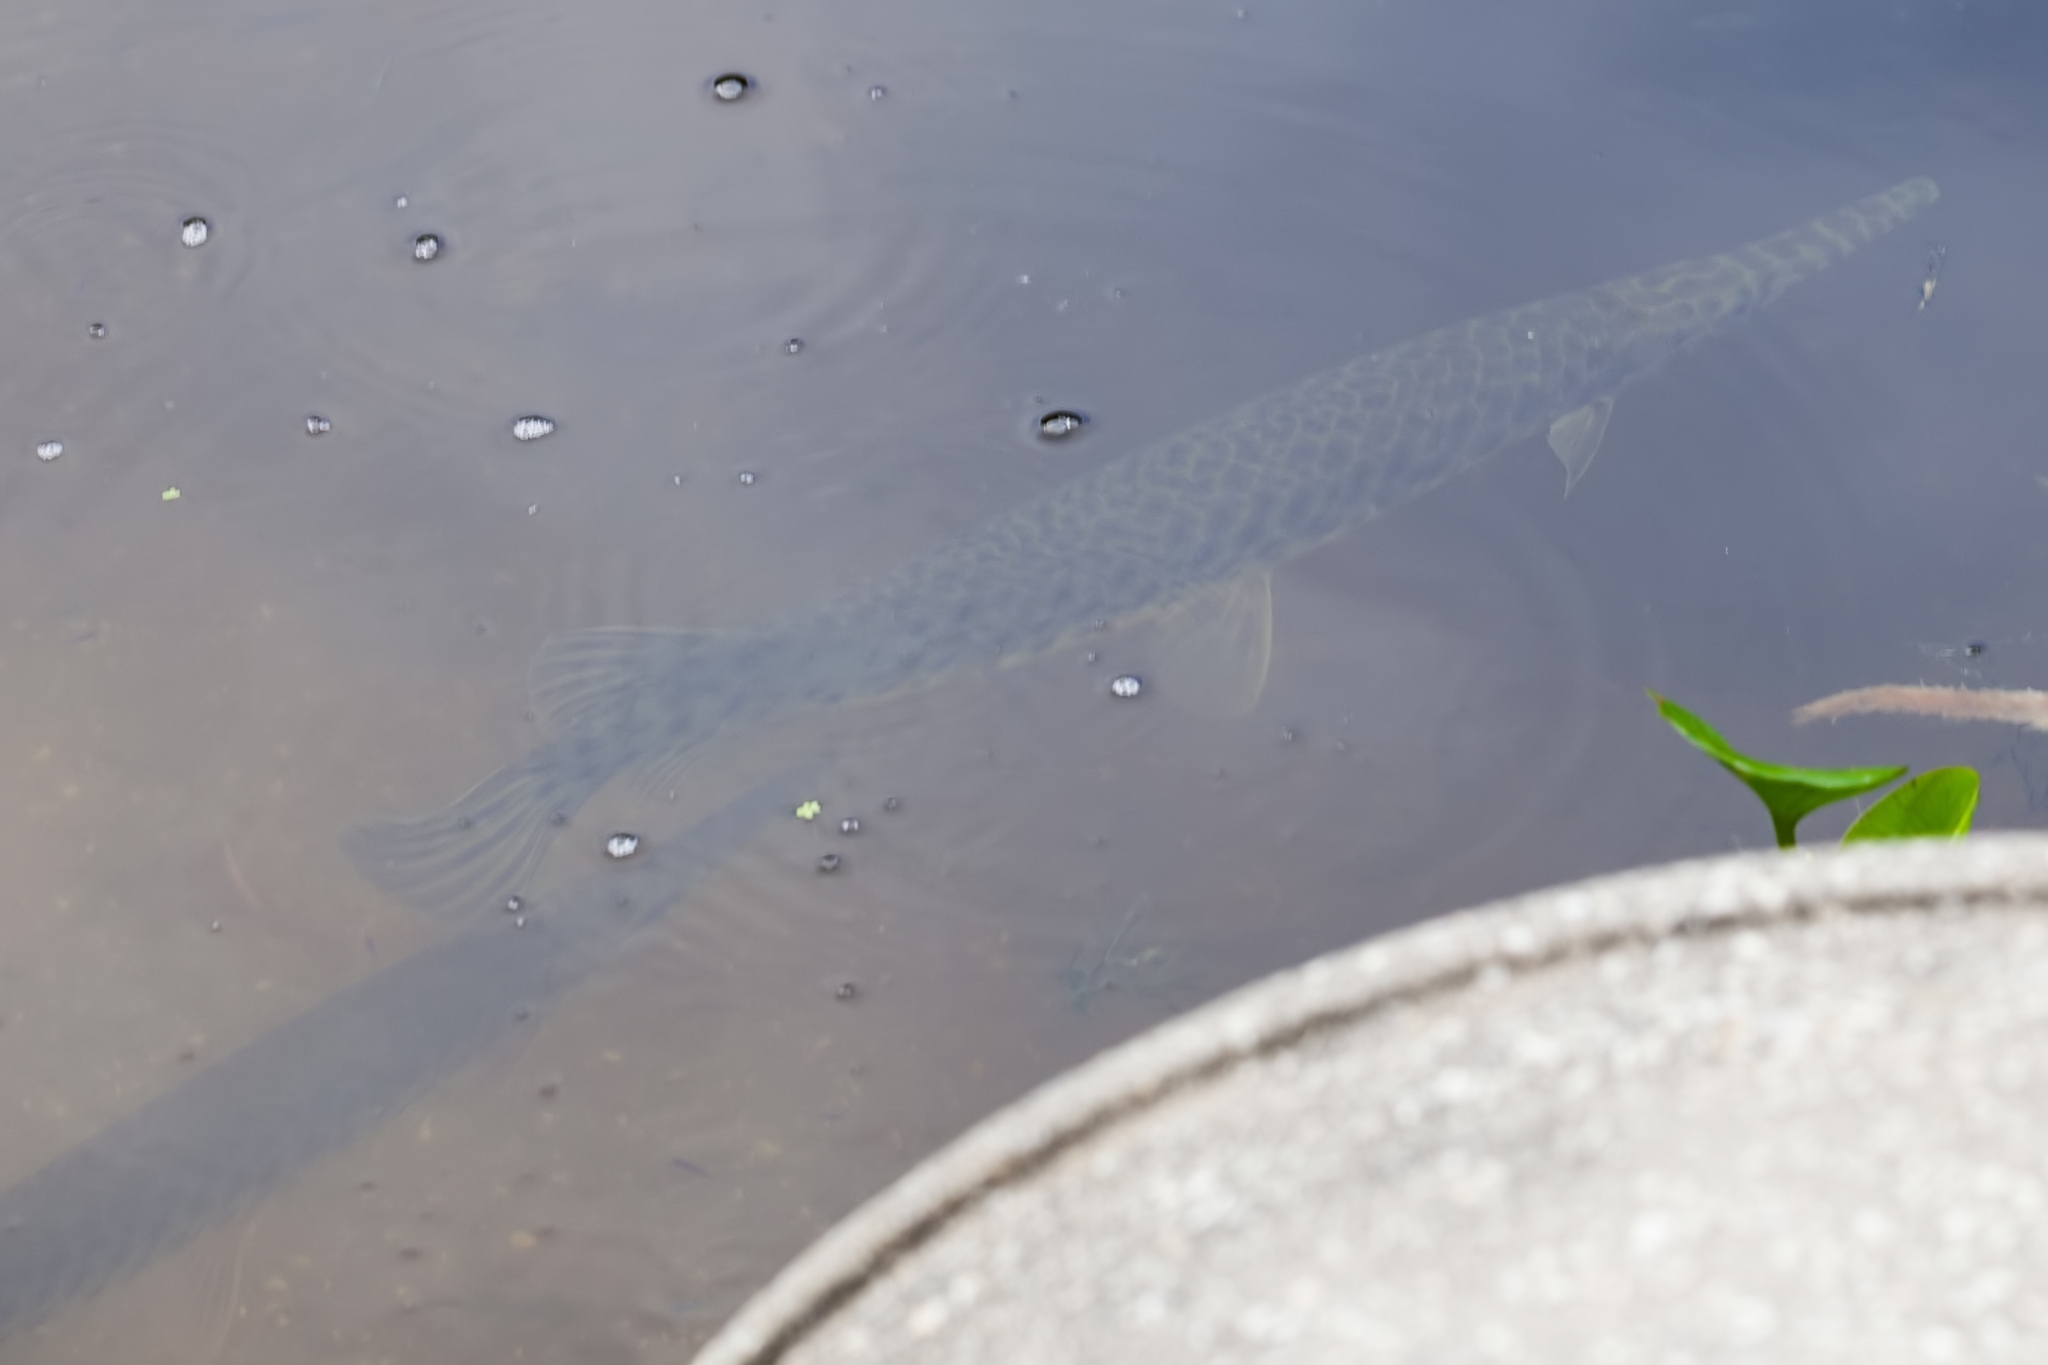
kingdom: Animalia
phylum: Chordata
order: Lepisosteiformes
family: Lepisosteidae
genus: Lepisosteus
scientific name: Lepisosteus platyrhincus
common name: Florida gar
